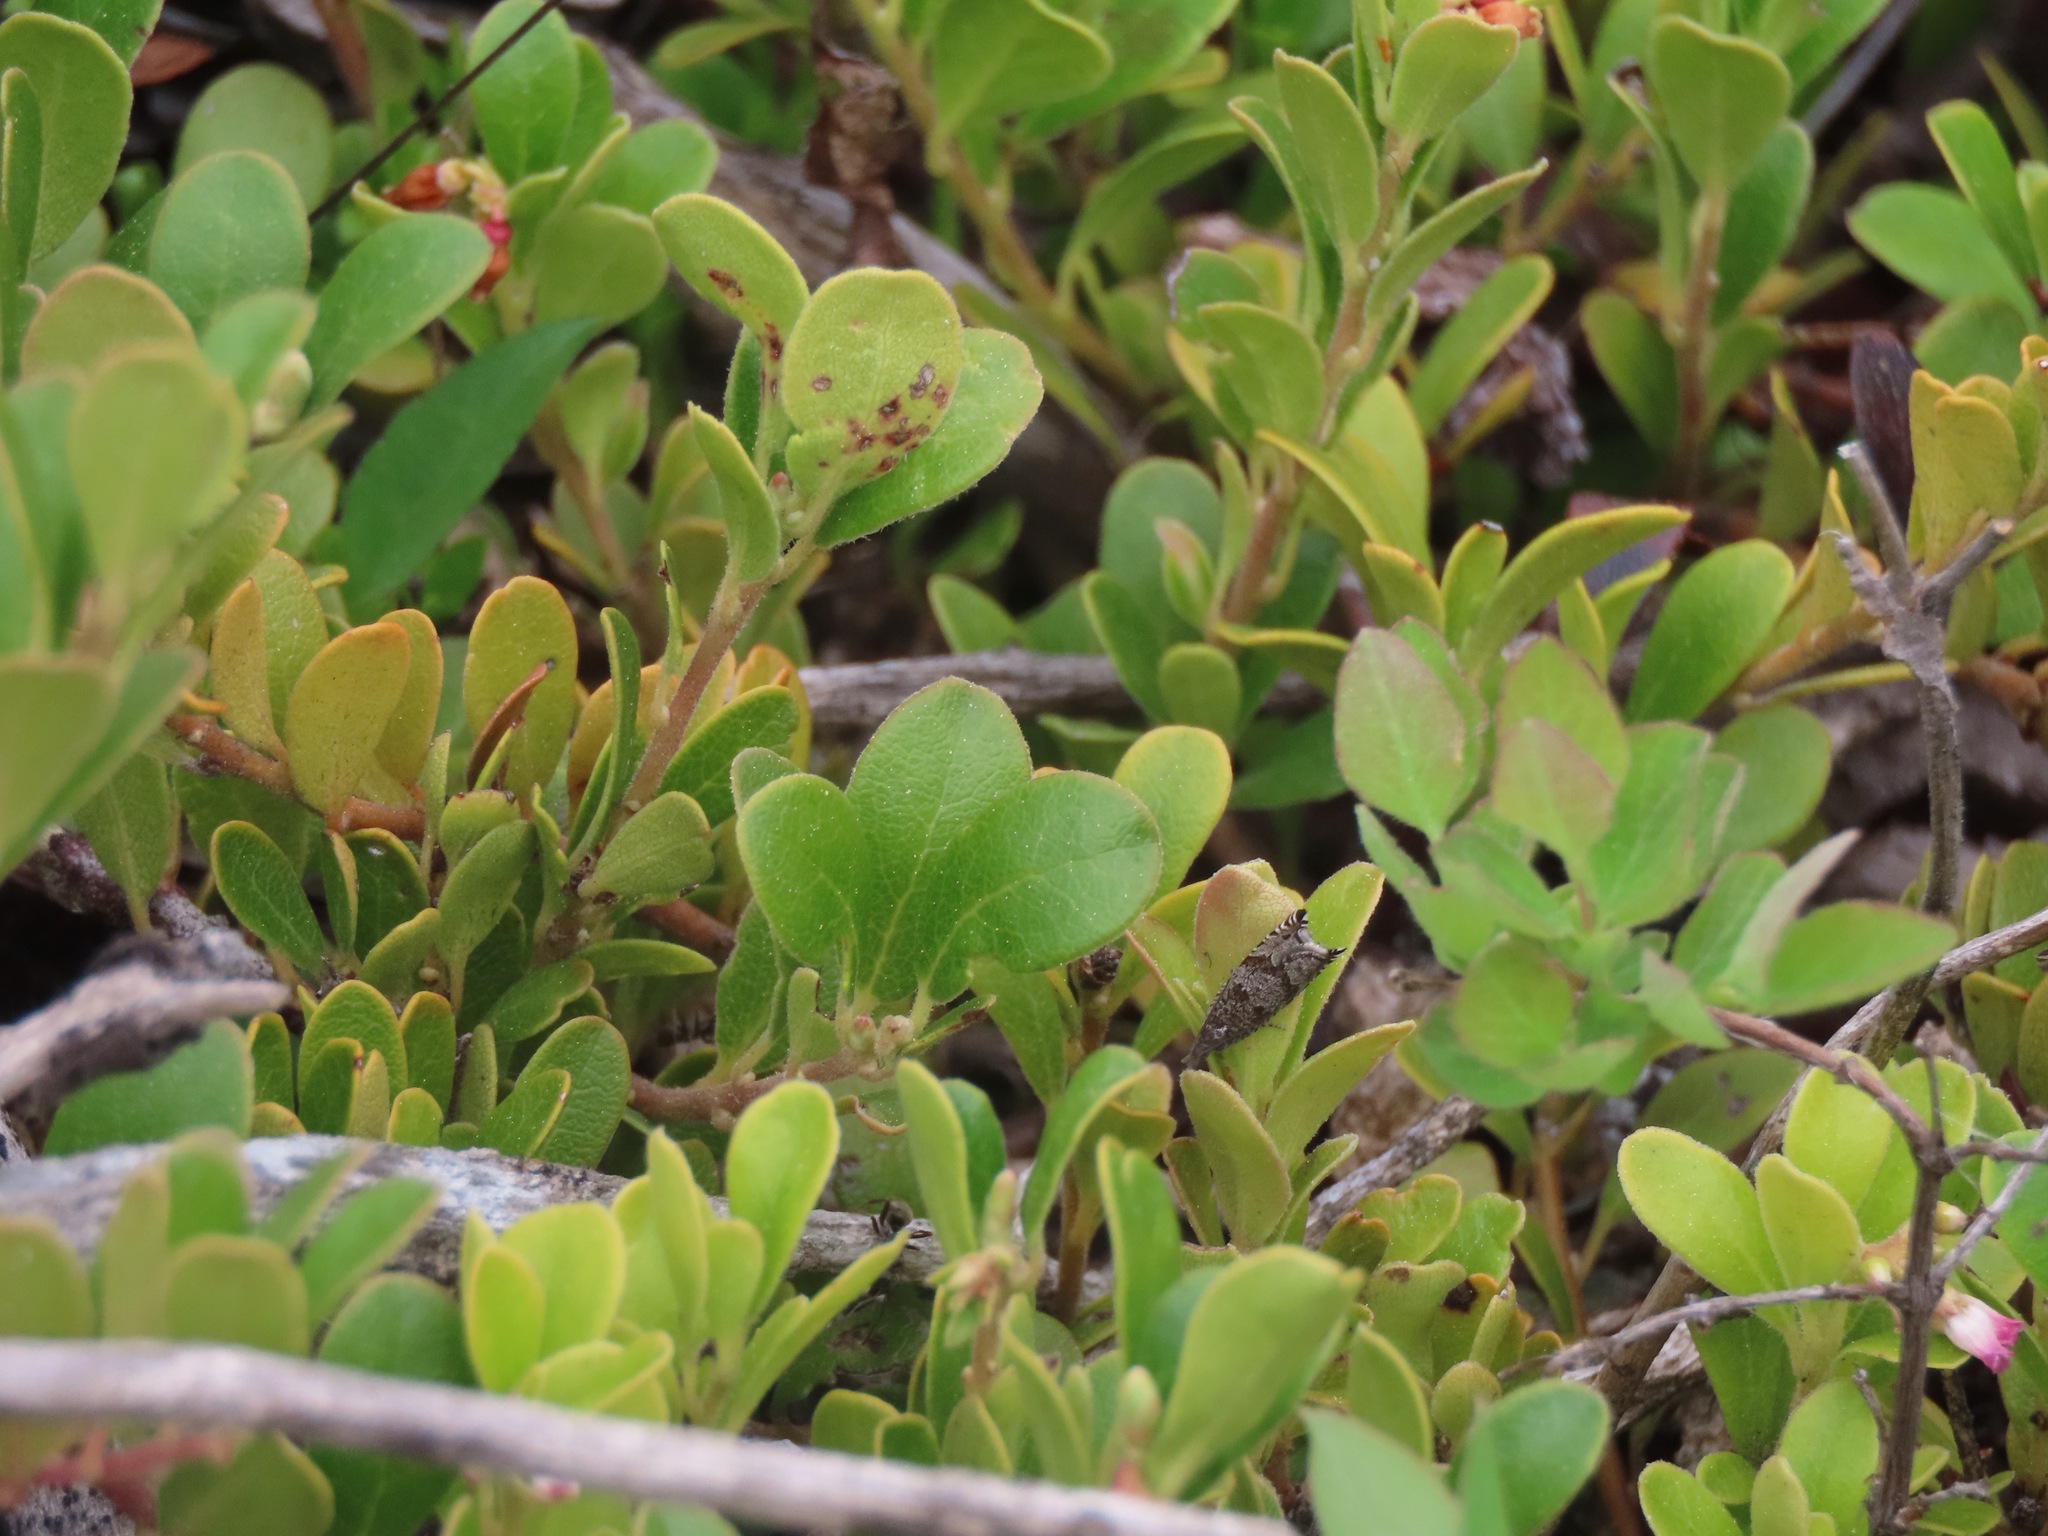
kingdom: Plantae
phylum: Tracheophyta
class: Magnoliopsida
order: Ericales
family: Ericaceae
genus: Arctostaphylos
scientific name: Arctostaphylos uva-ursi
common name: Bearberry
